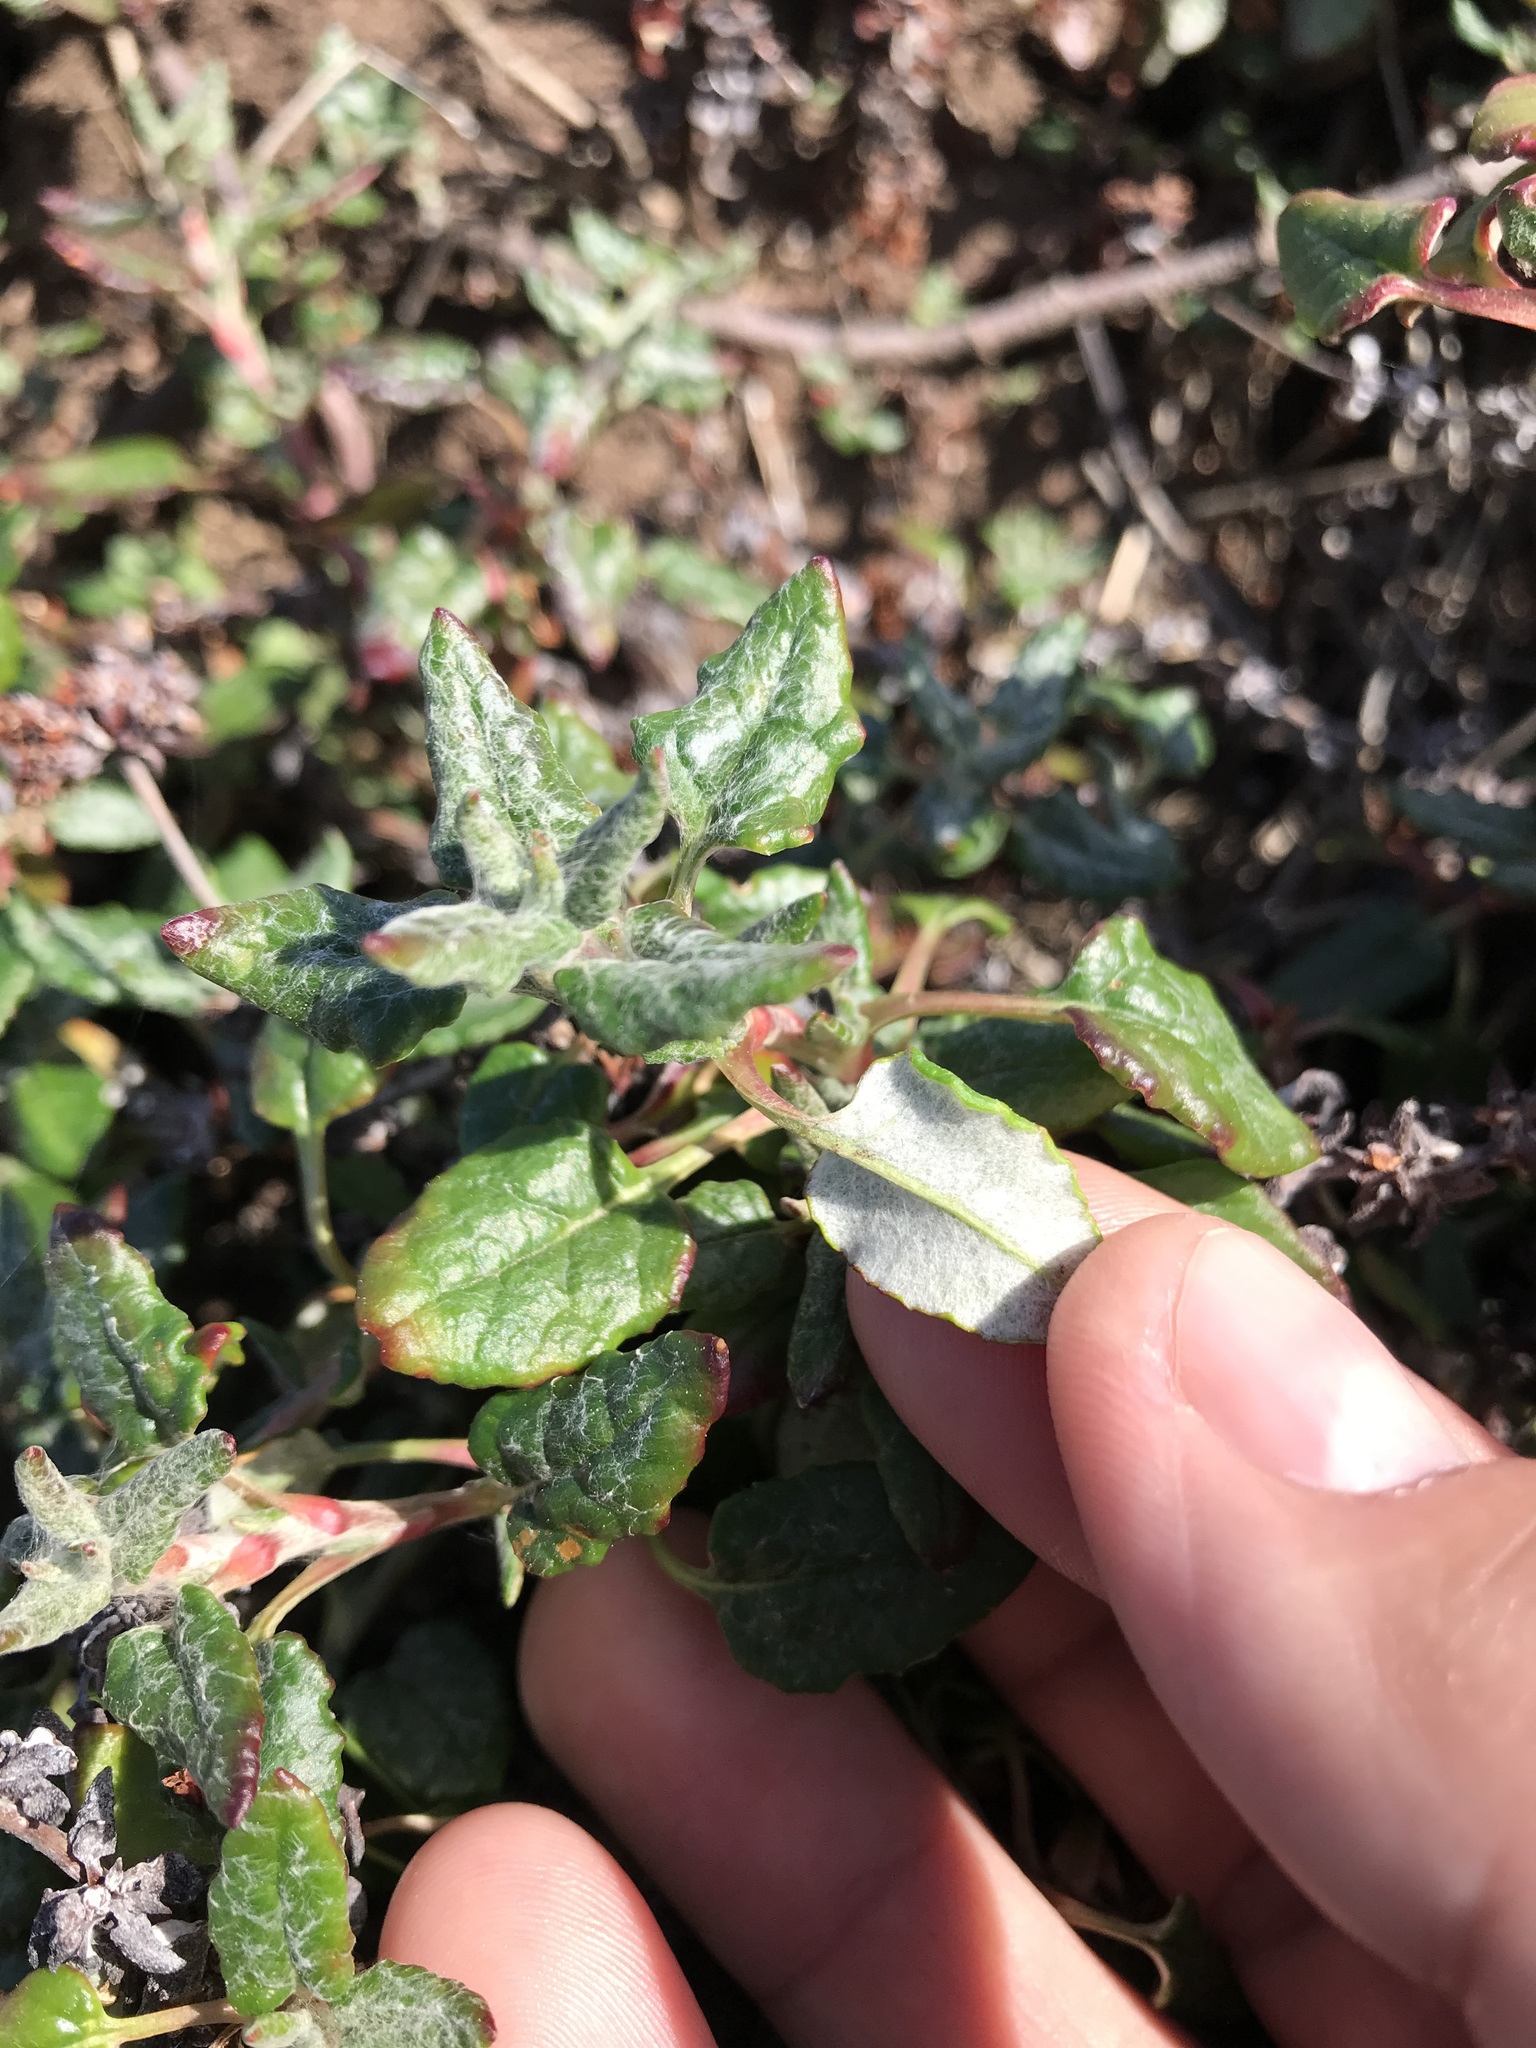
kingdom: Plantae
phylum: Tracheophyta
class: Magnoliopsida
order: Caryophyllales
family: Polygonaceae
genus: Eriogonum
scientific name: Eriogonum parvifolium
